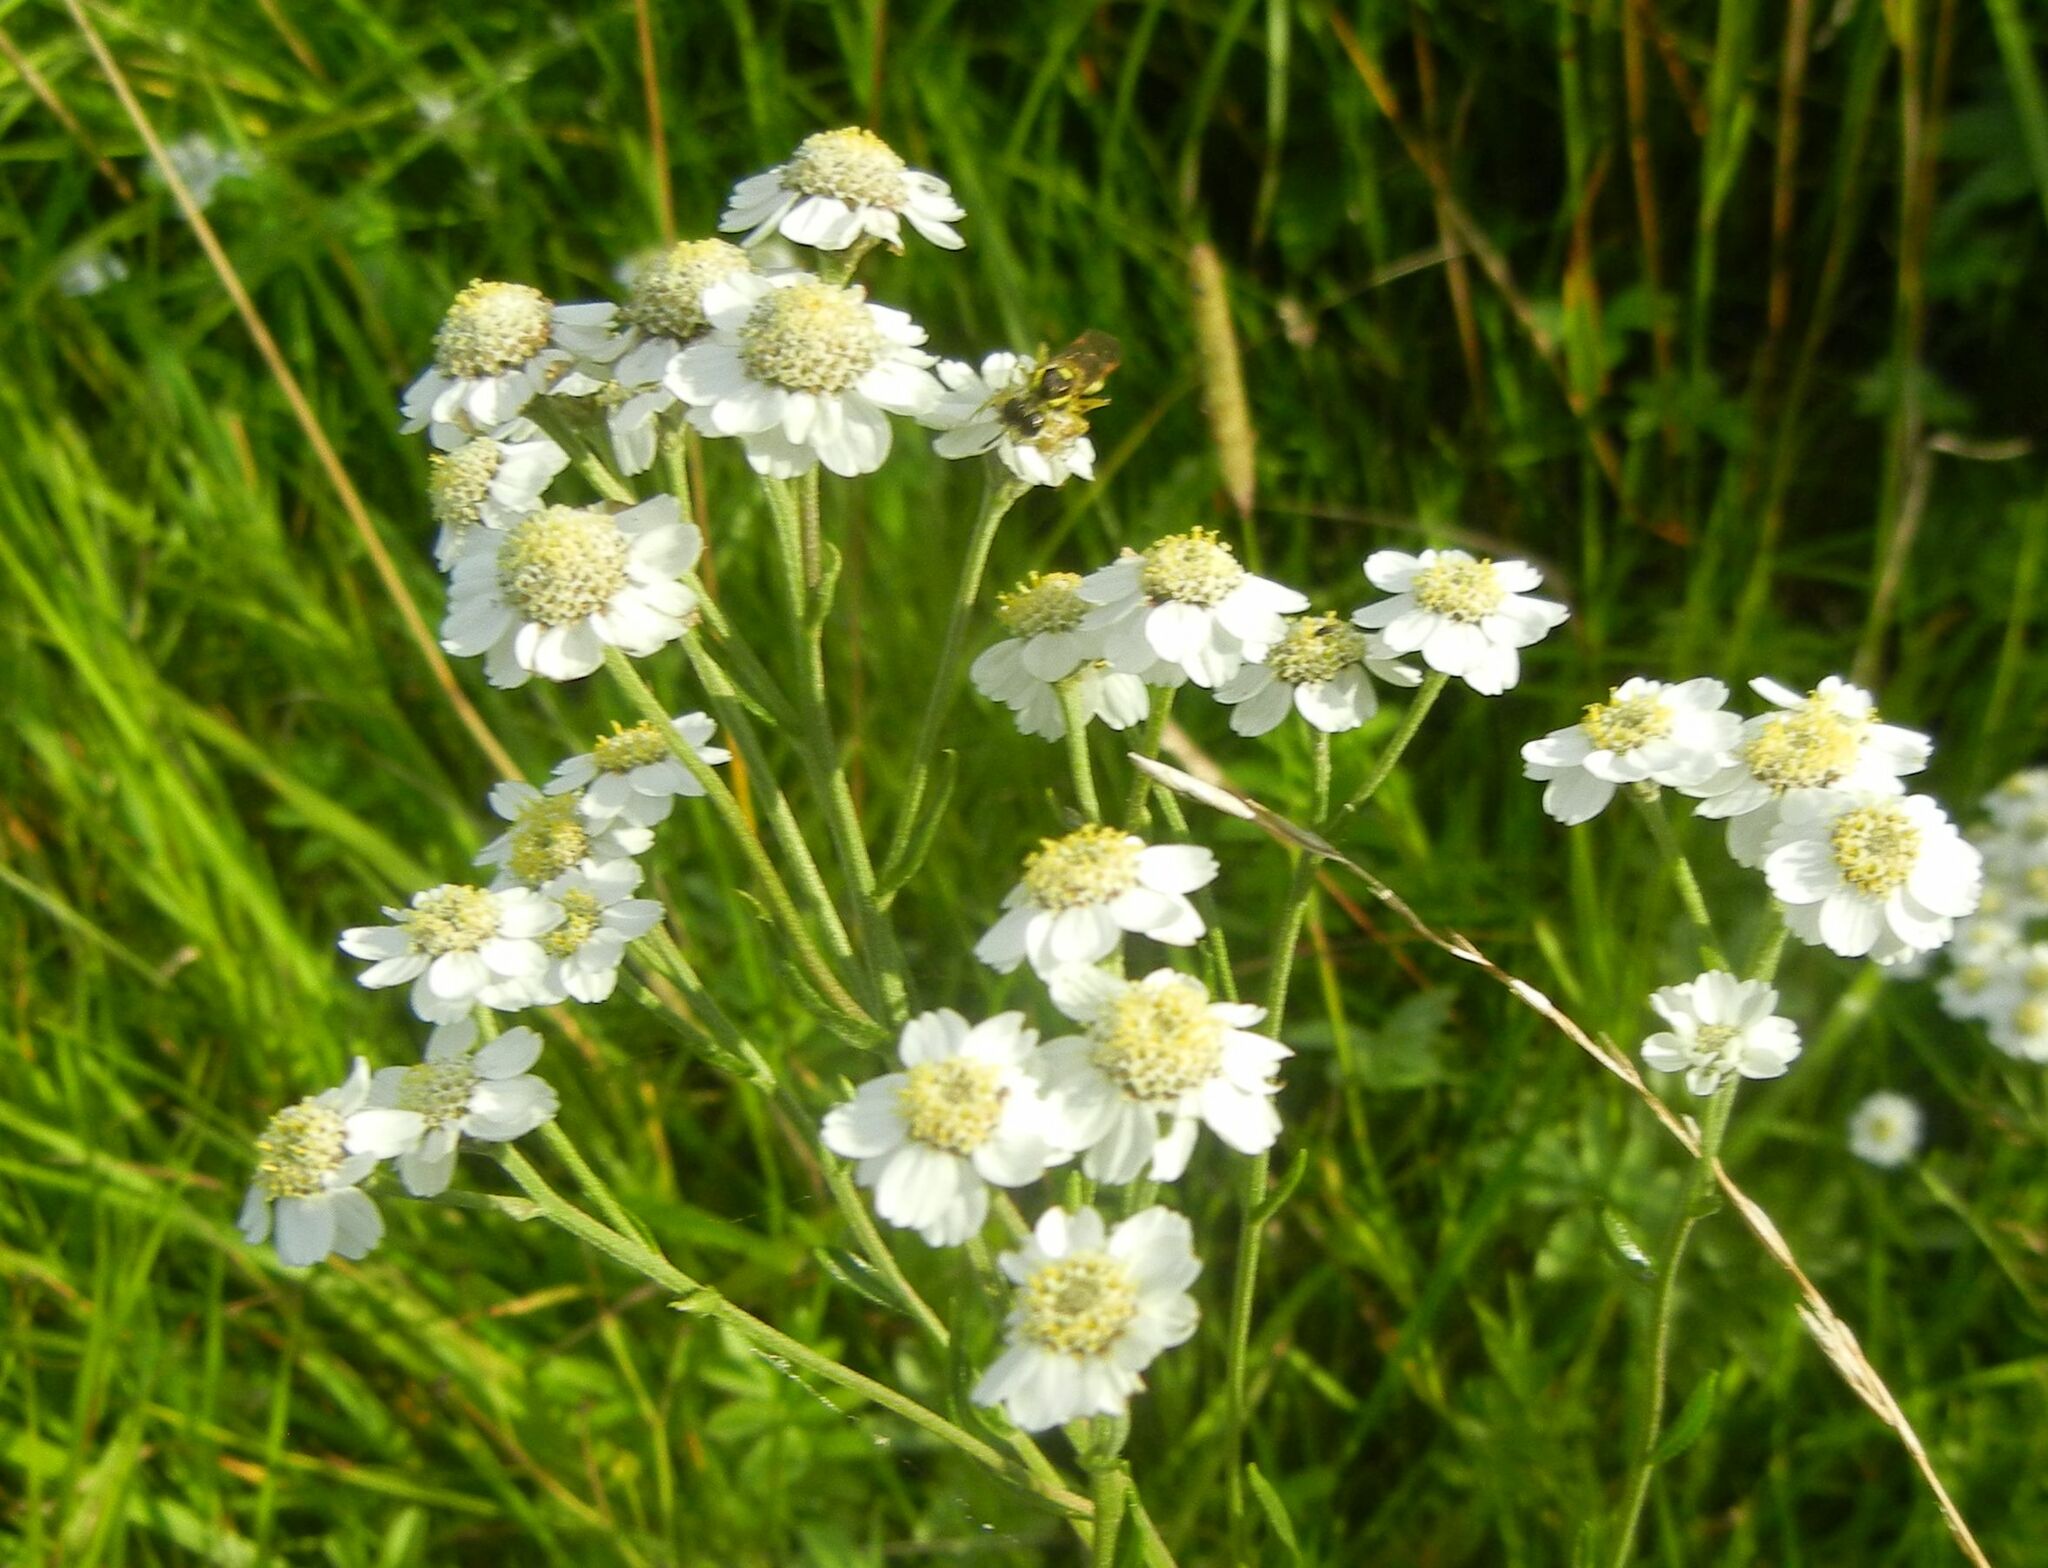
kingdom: Plantae
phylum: Tracheophyta
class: Magnoliopsida
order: Asterales
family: Asteraceae
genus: Achillea
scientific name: Achillea ptarmica
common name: Sneezeweed
